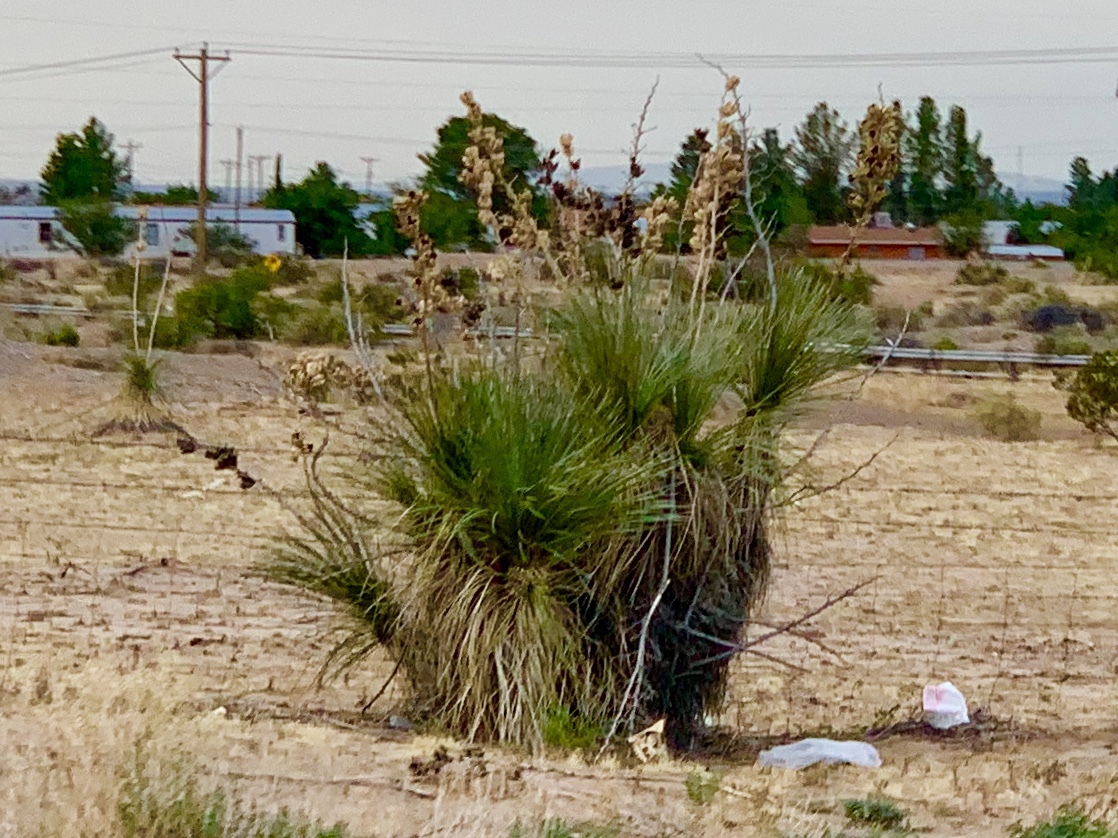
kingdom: Plantae
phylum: Tracheophyta
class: Liliopsida
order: Asparagales
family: Asparagaceae
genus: Yucca
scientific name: Yucca elata
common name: Palmella
